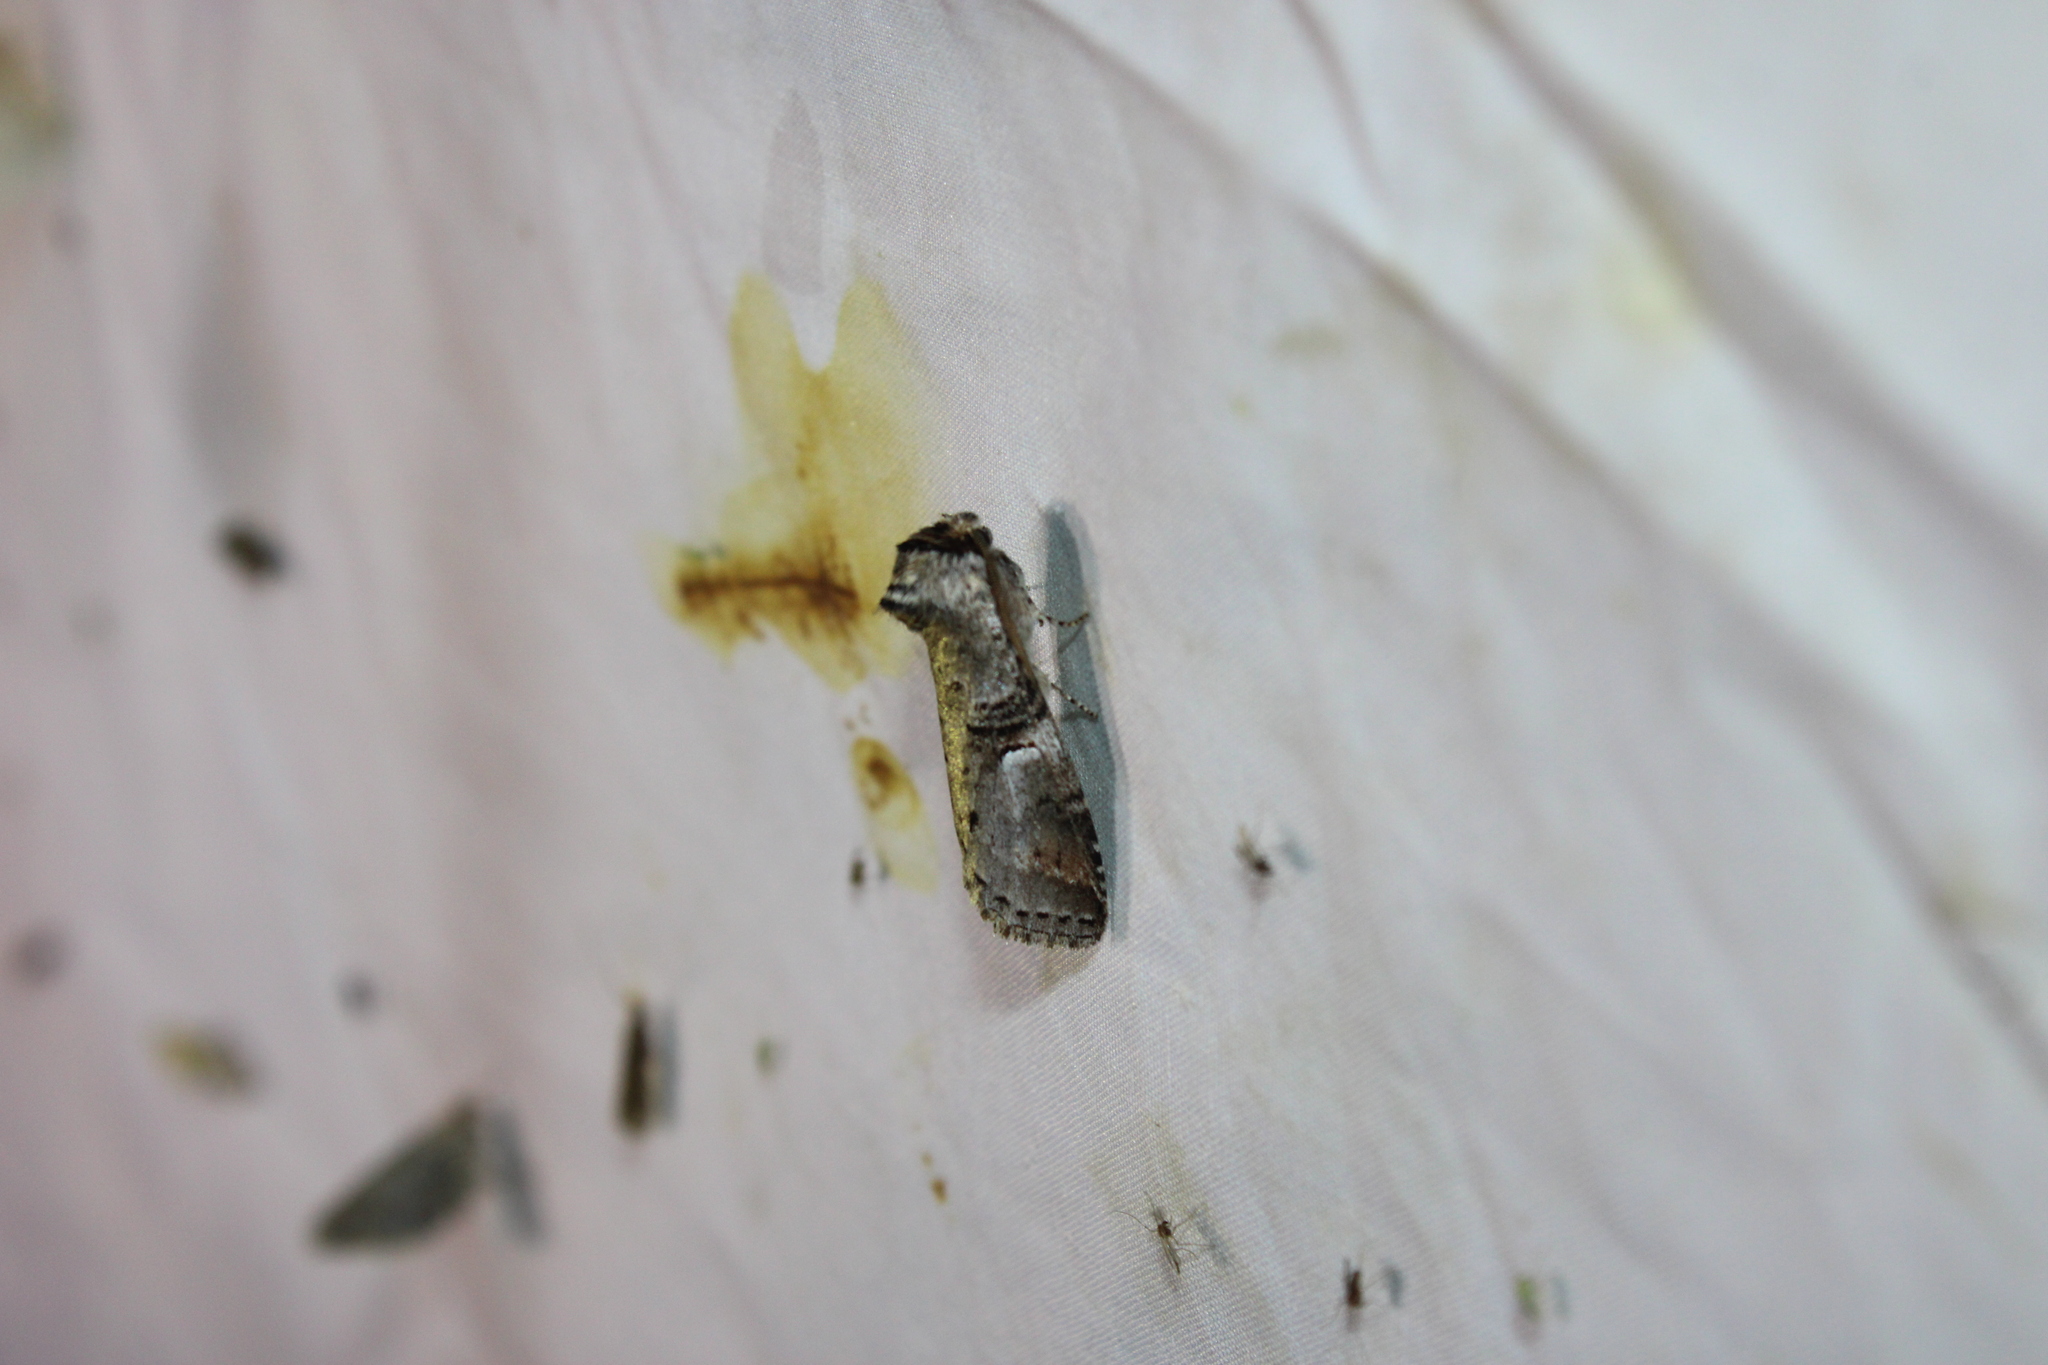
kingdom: Animalia
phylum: Arthropoda
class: Insecta
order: Lepidoptera
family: Notodontidae
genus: Ellida
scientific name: Ellida caniplaga
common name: Linden prominent
